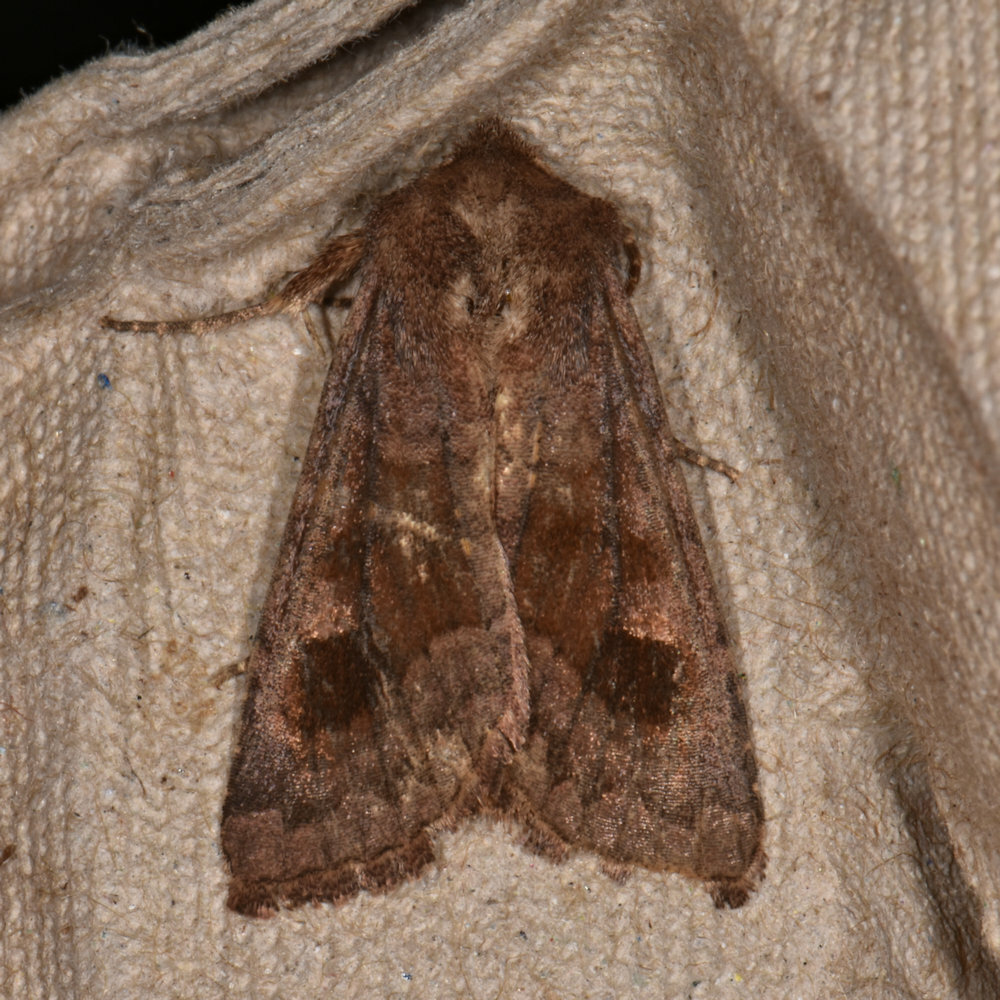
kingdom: Animalia
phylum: Arthropoda
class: Insecta
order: Lepidoptera
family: Noctuidae
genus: Nephelodes
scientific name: Nephelodes minians
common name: Bronzed cutworm
